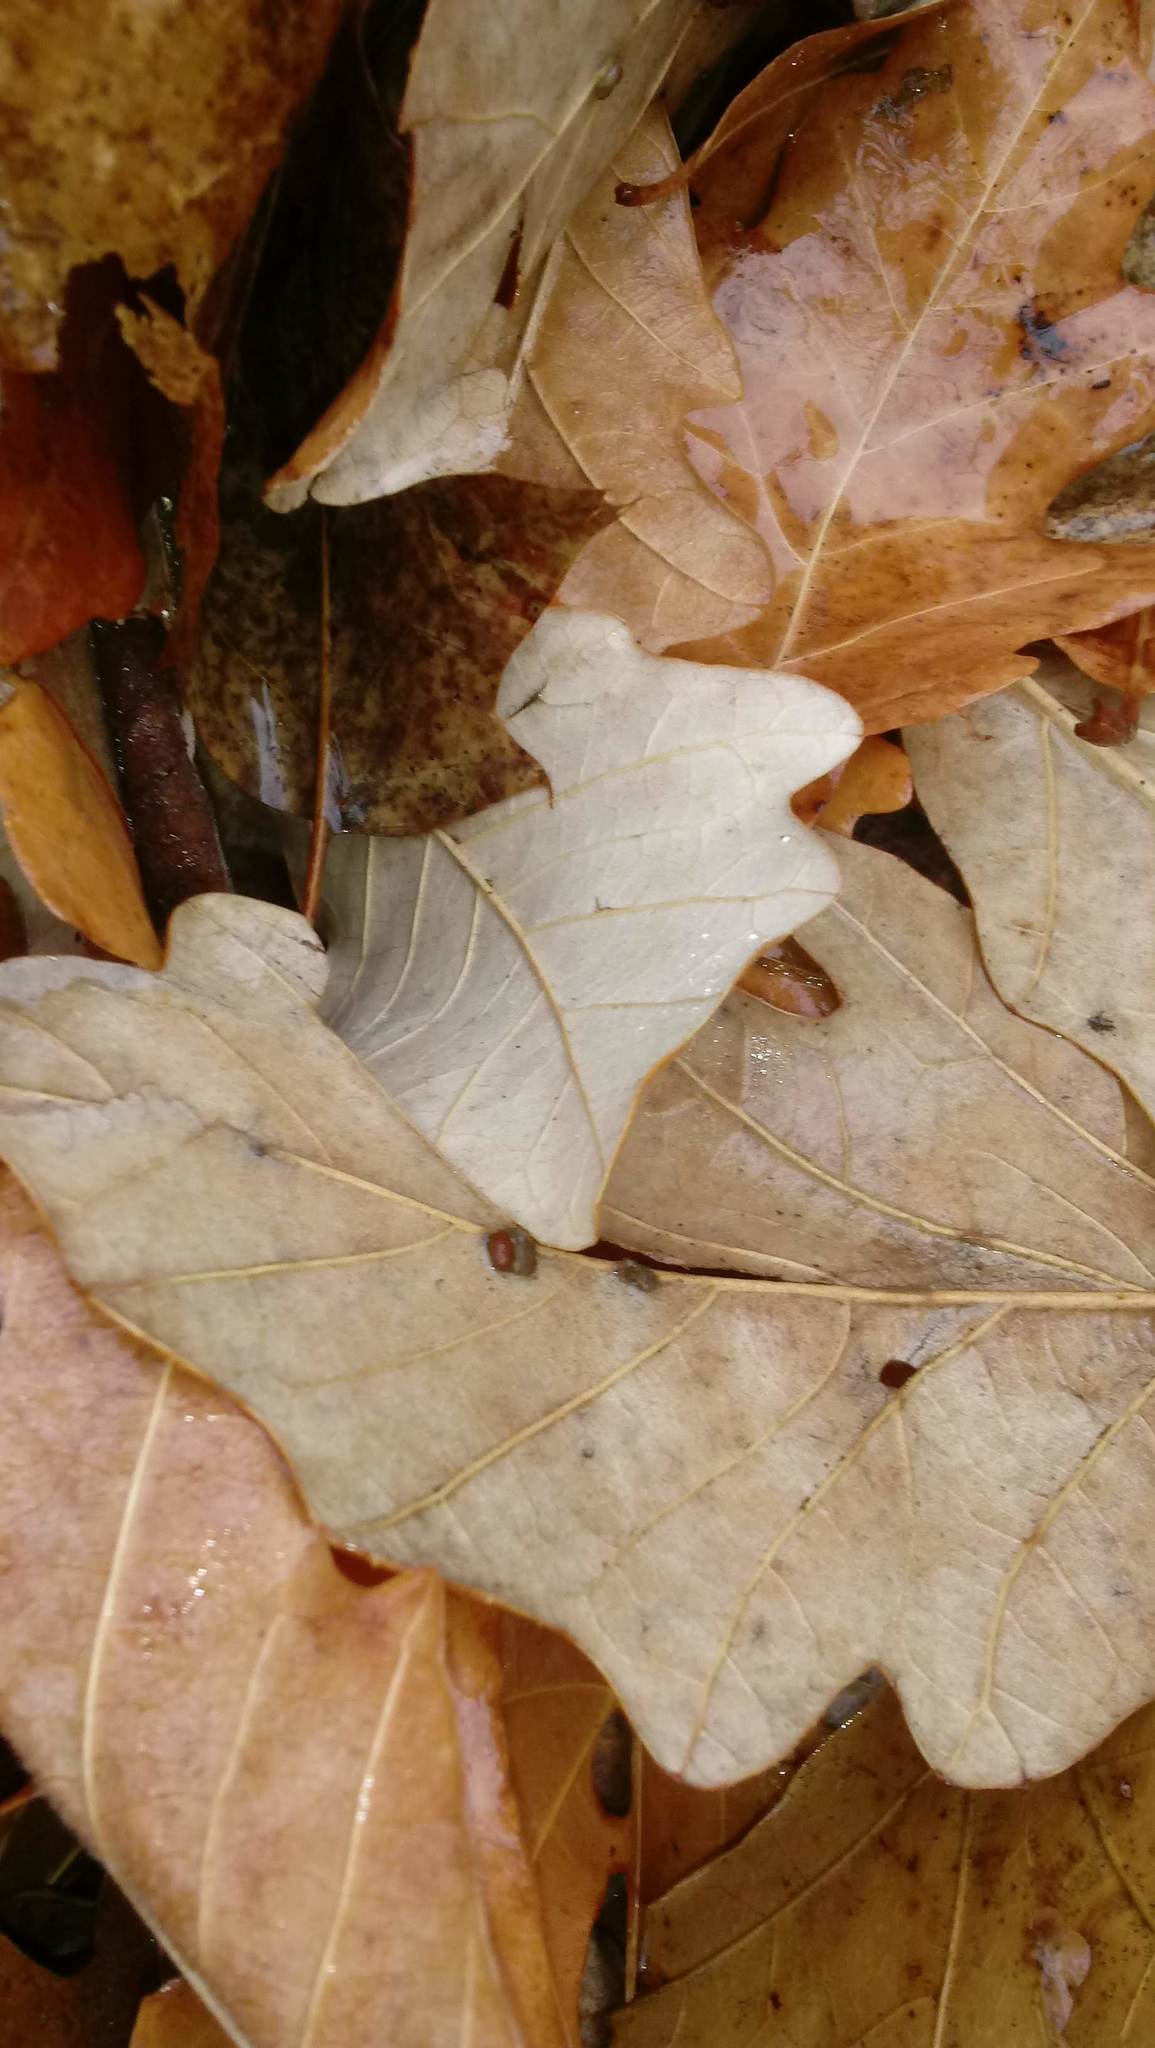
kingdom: Animalia
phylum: Arthropoda
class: Insecta
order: Hymenoptera
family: Cynipidae
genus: Andricus
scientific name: Andricus Druon ignotum
